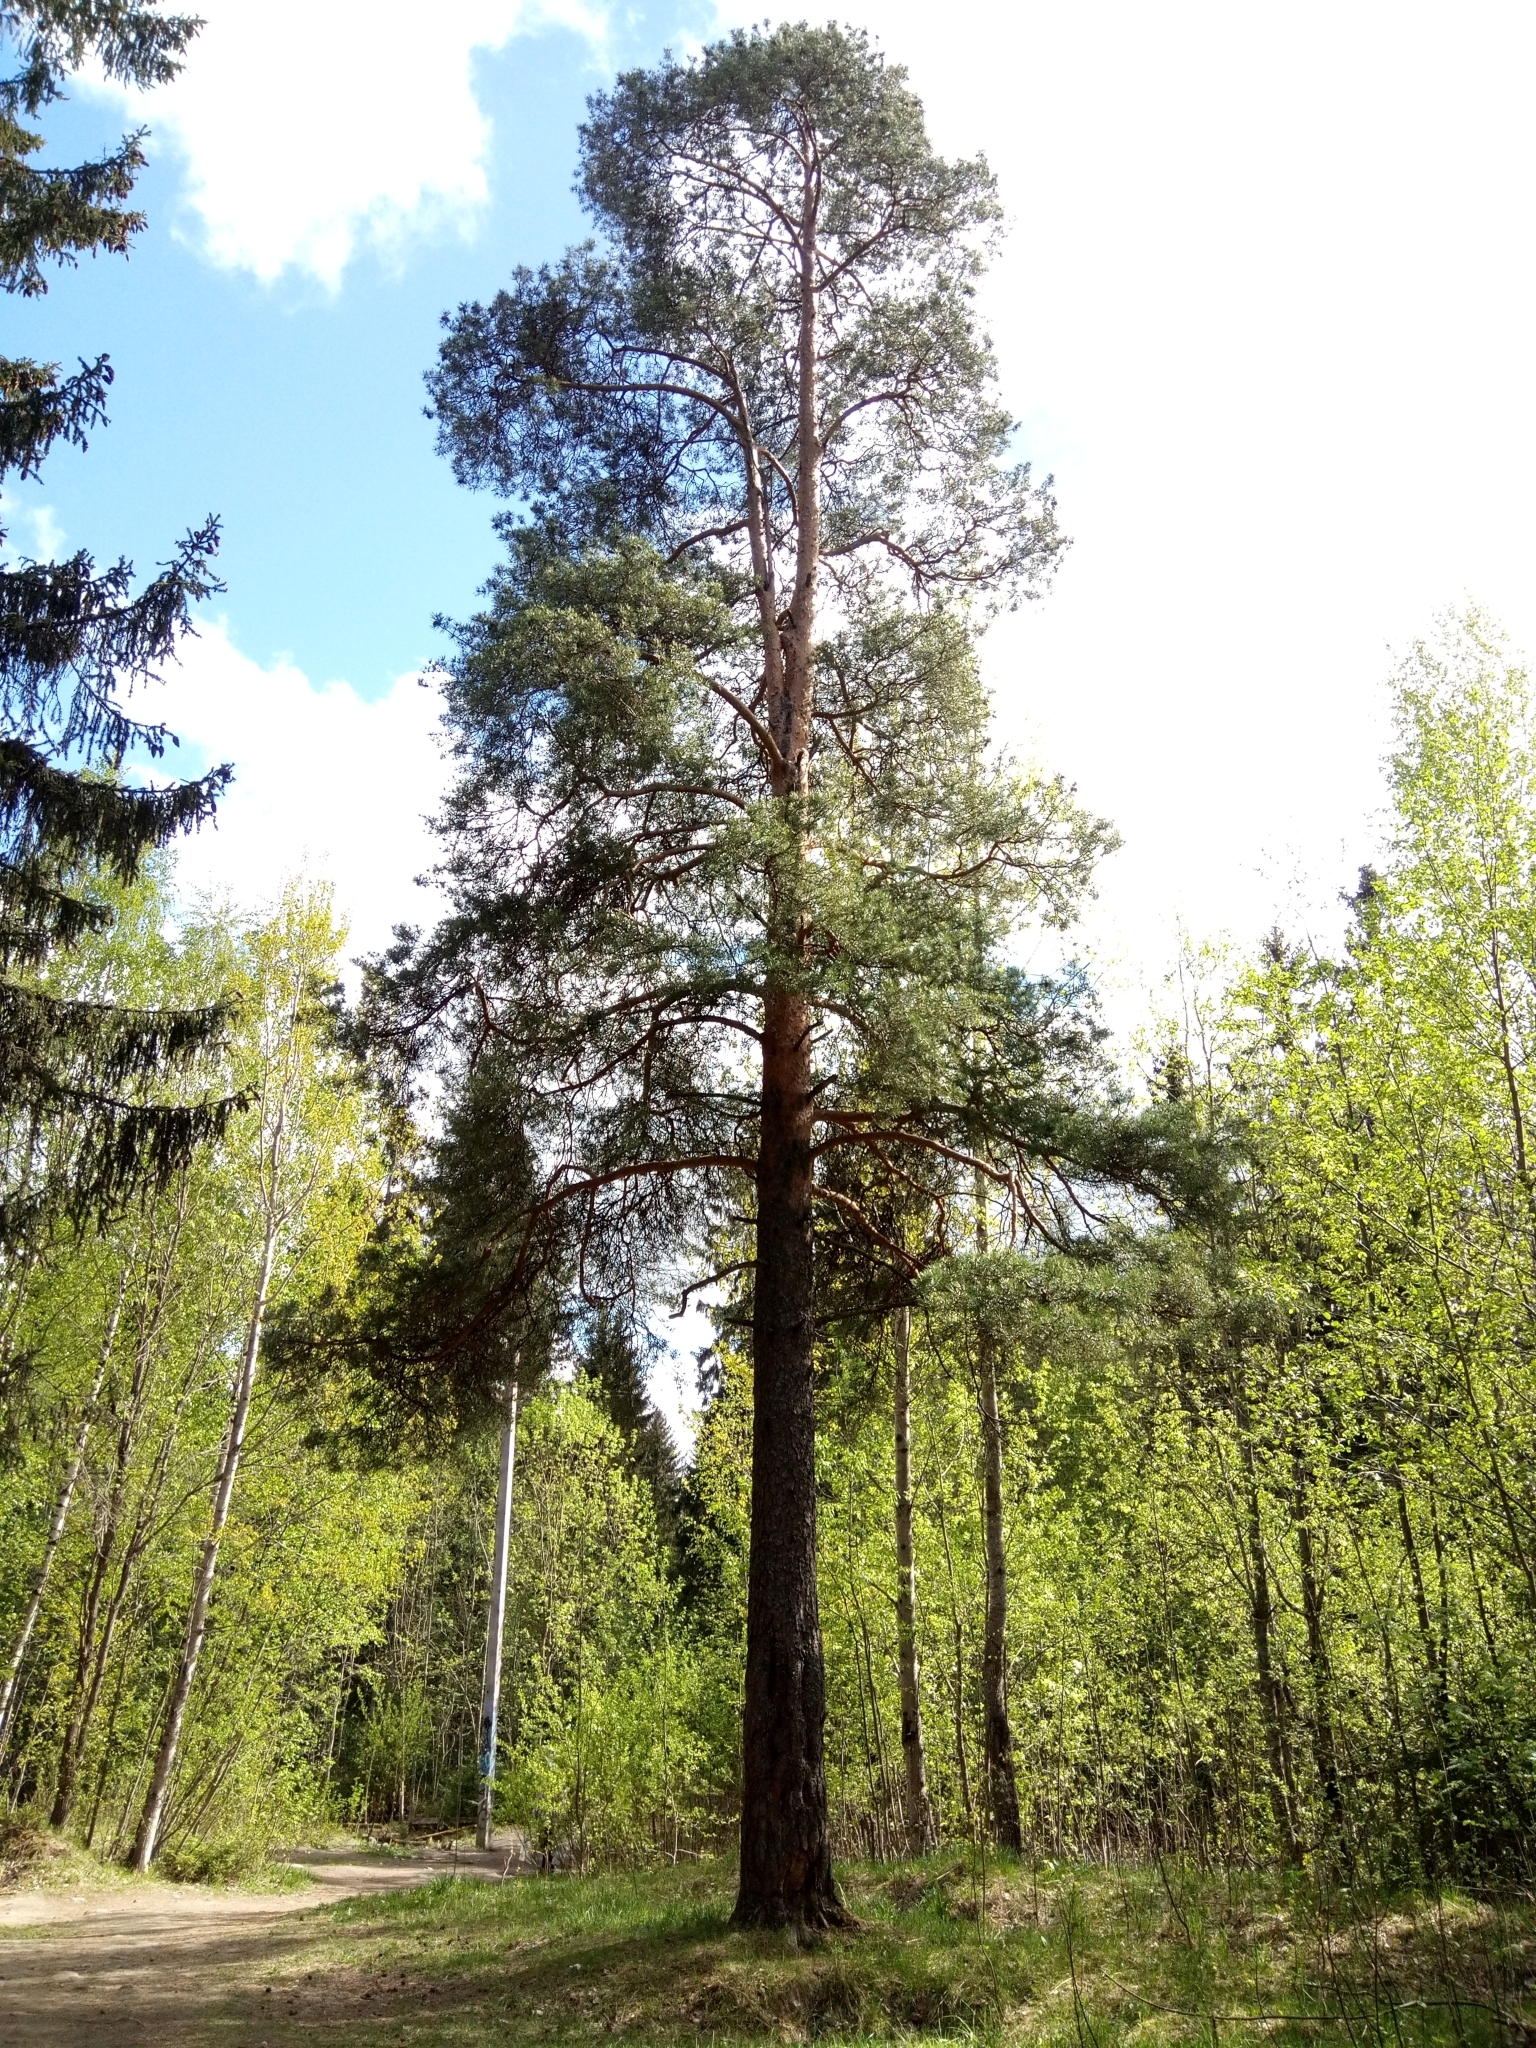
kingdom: Plantae
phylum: Tracheophyta
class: Pinopsida
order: Pinales
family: Pinaceae
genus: Pinus
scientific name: Pinus sylvestris
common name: Scots pine
